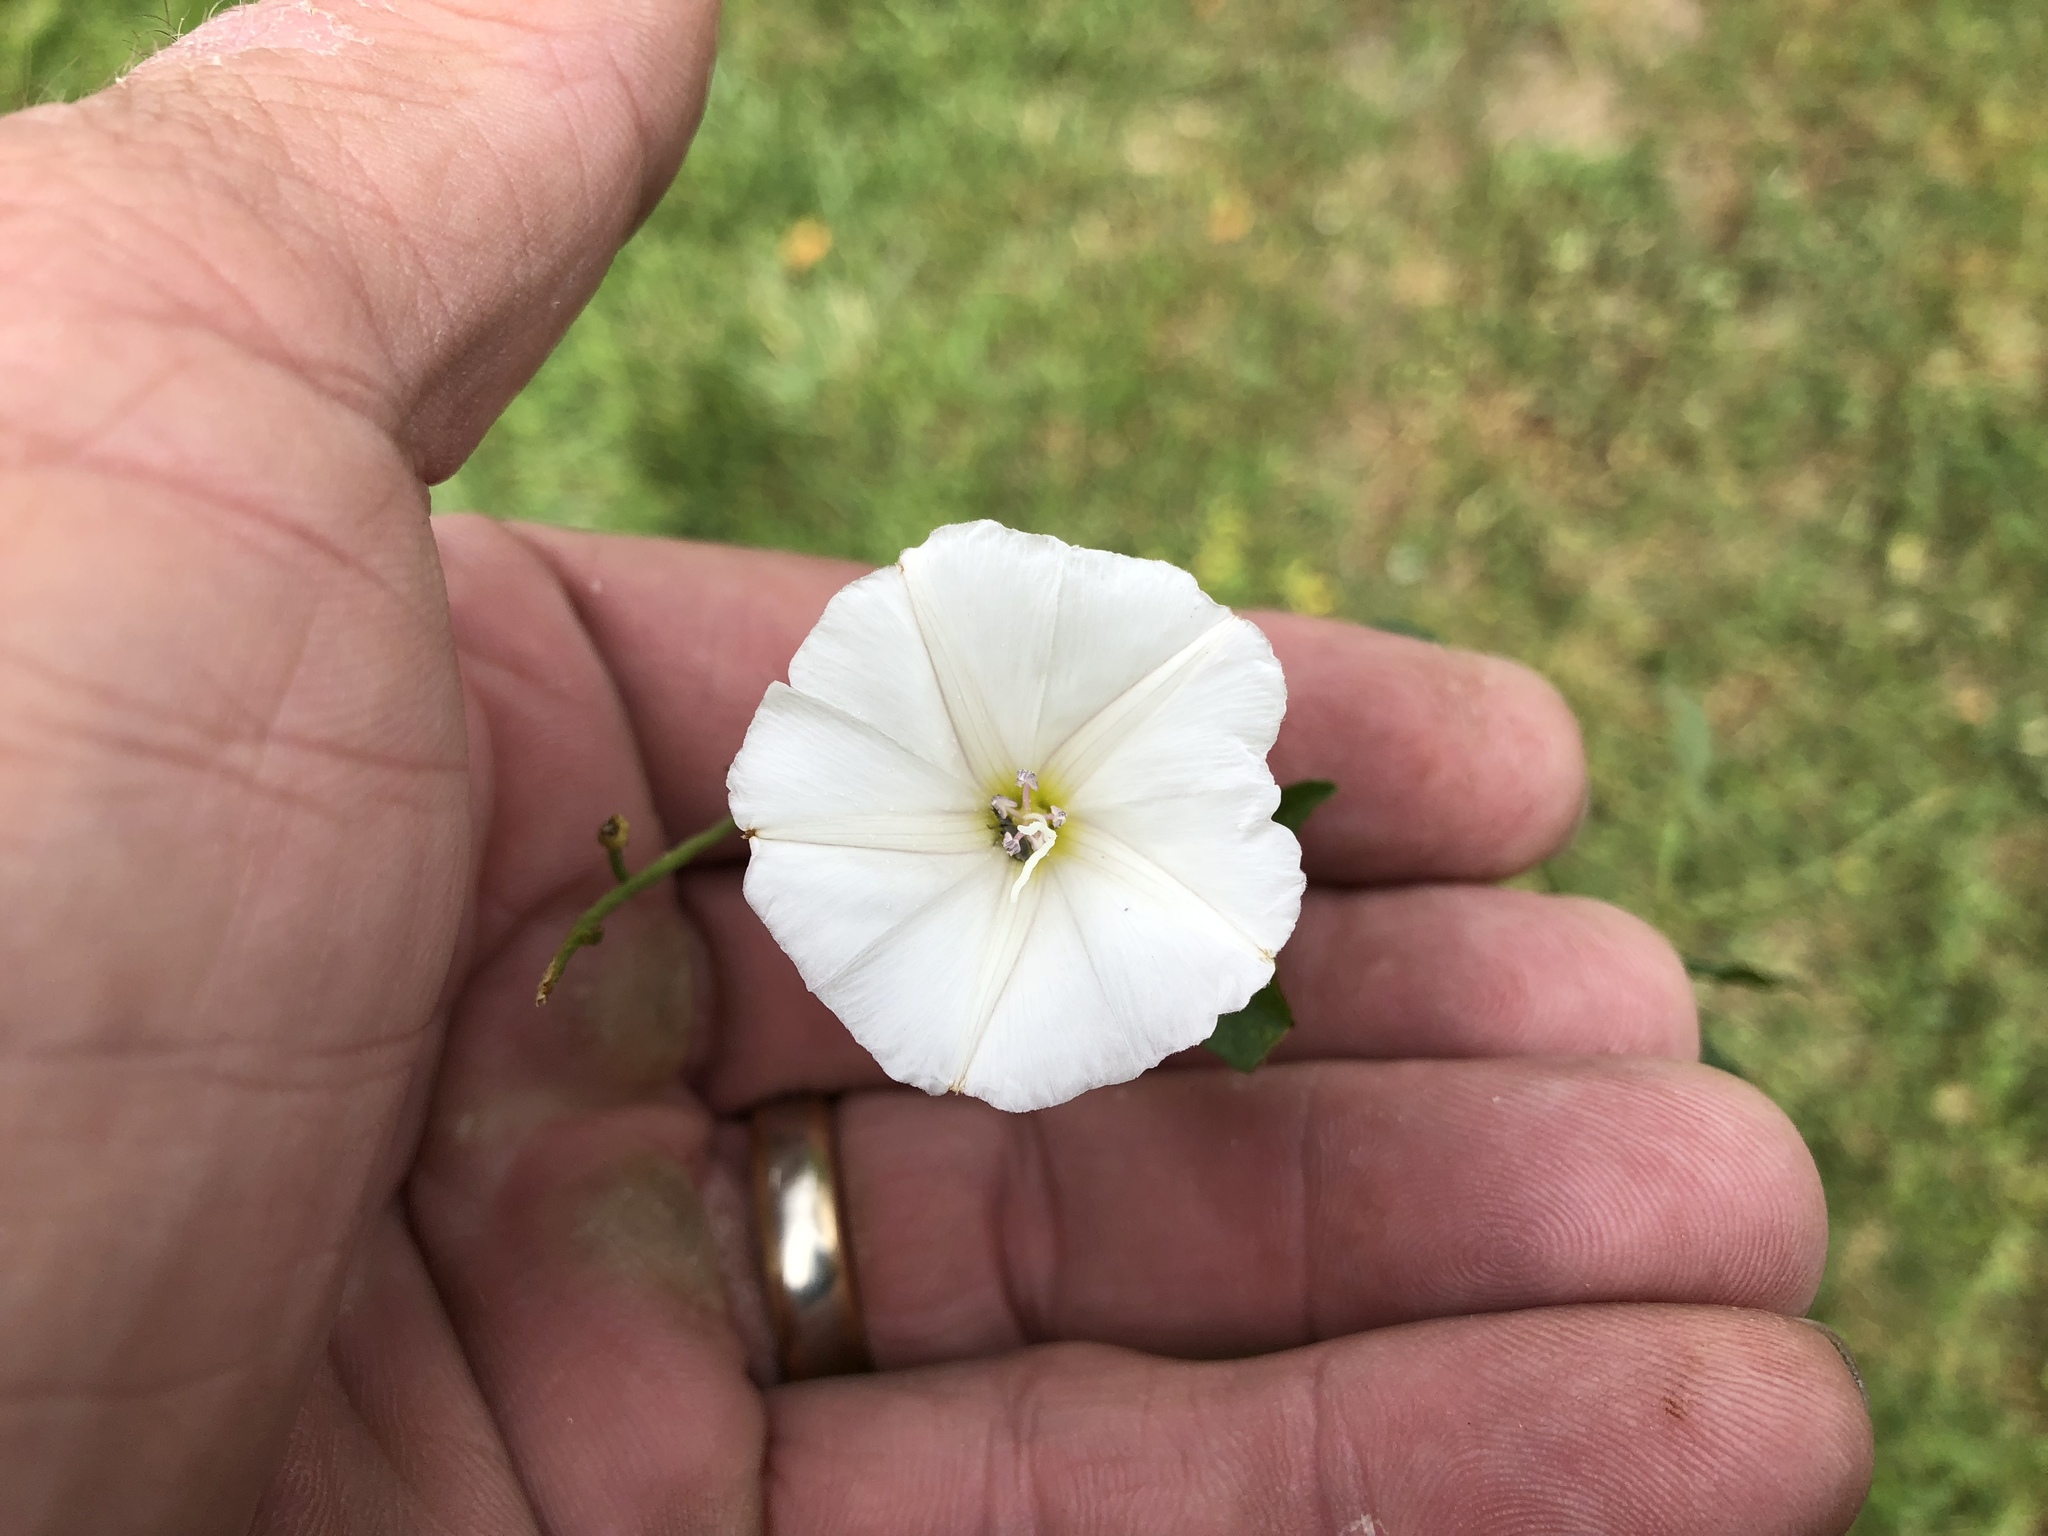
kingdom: Plantae
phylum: Tracheophyta
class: Magnoliopsida
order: Solanales
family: Convolvulaceae
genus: Convolvulus
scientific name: Convolvulus arvensis
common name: Field bindweed
